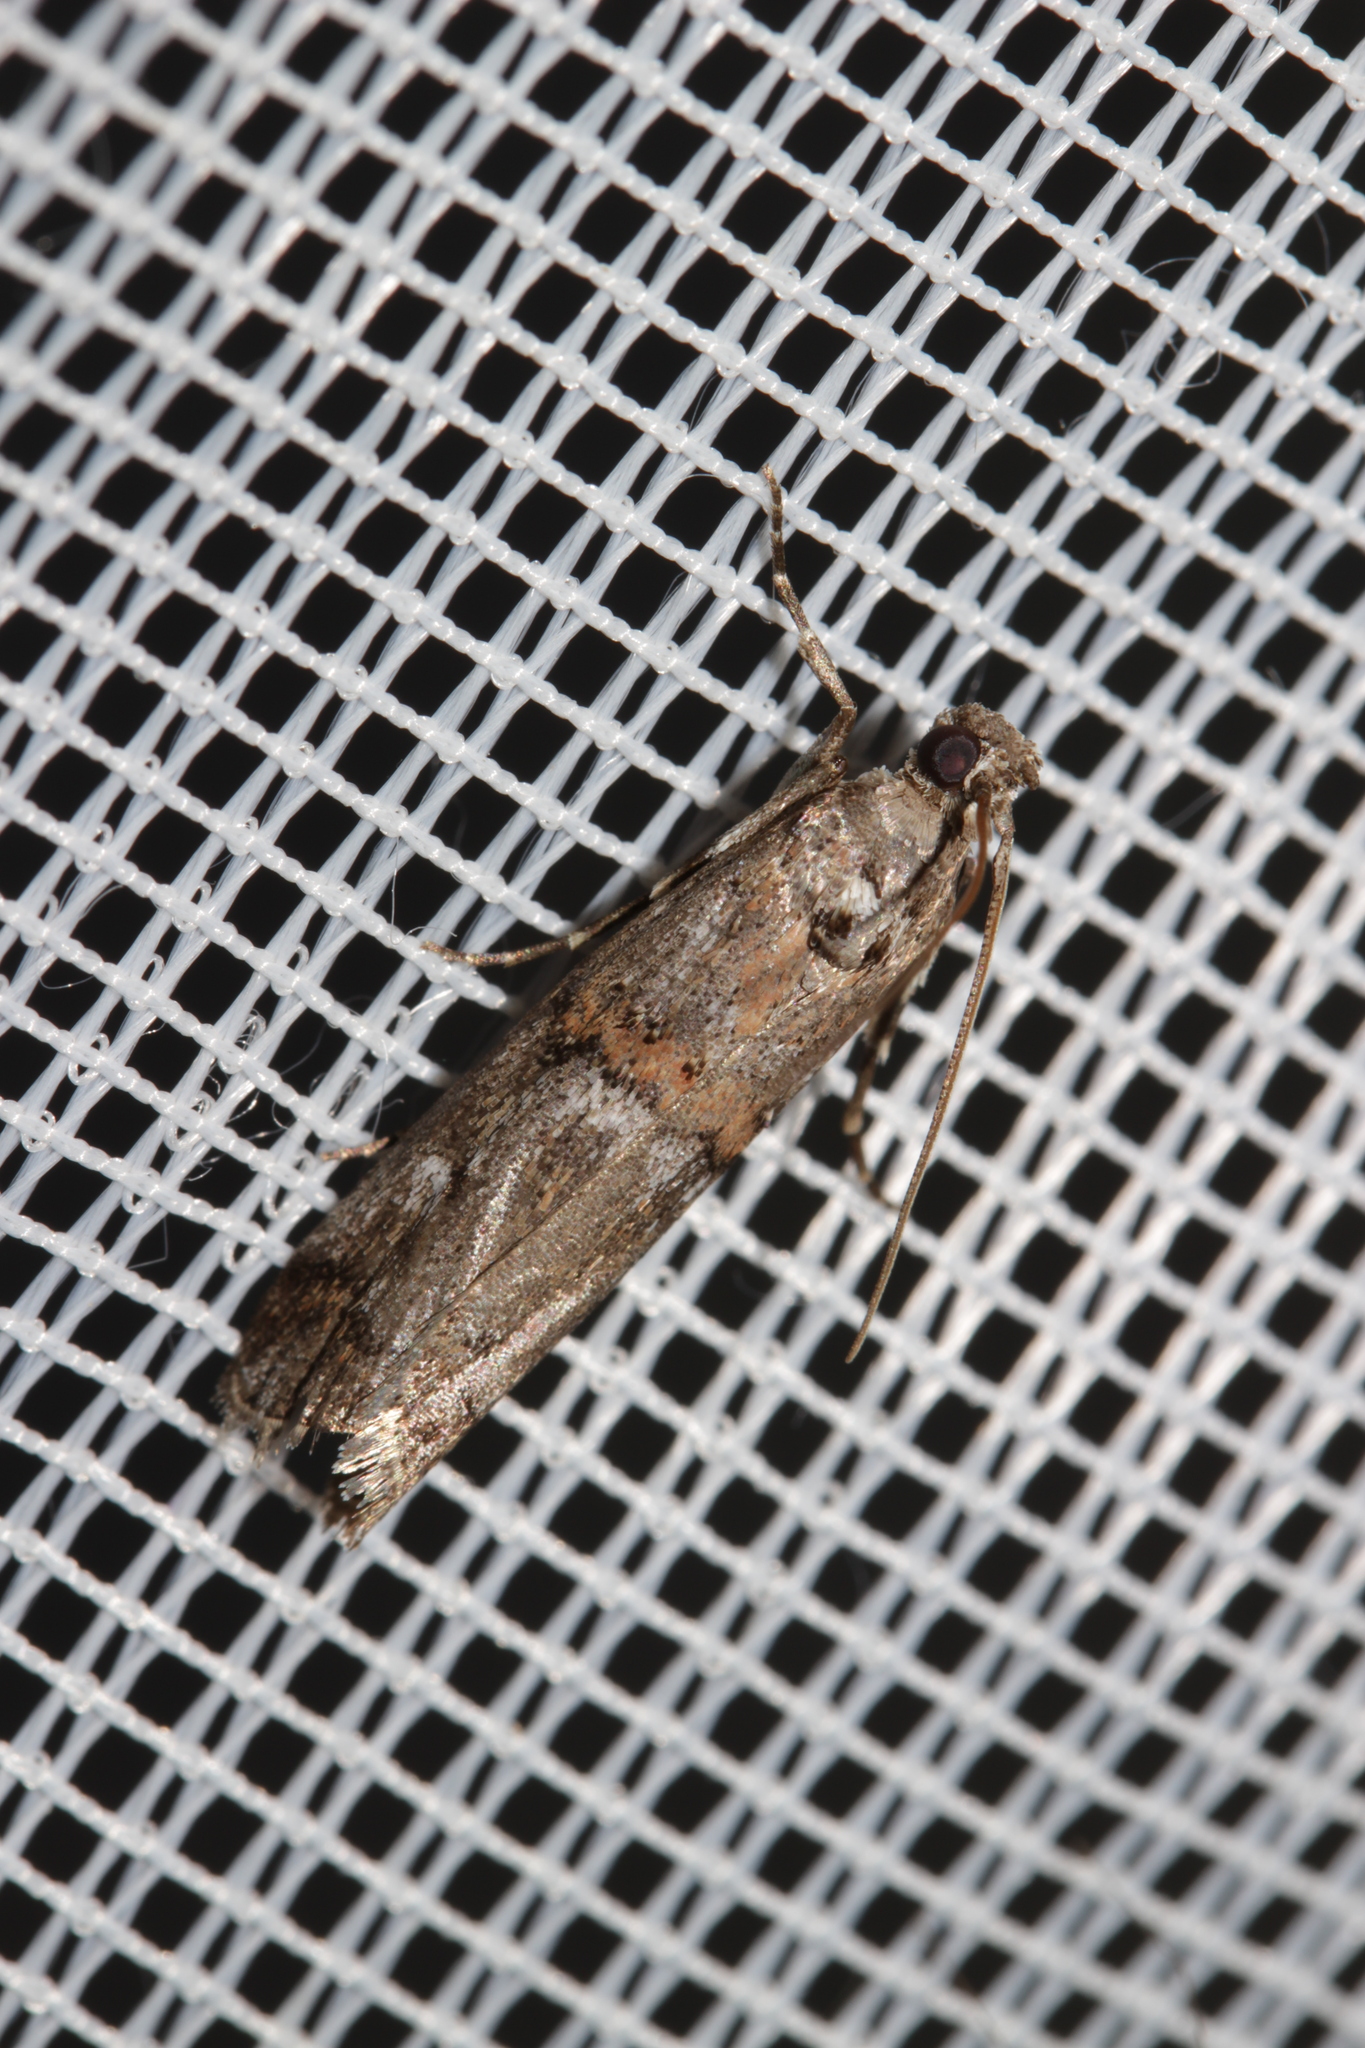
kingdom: Animalia
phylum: Arthropoda
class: Insecta
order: Lepidoptera
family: Pyralidae
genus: Pempelia
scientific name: Pempelia palumbella
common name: Heather knot-horn
